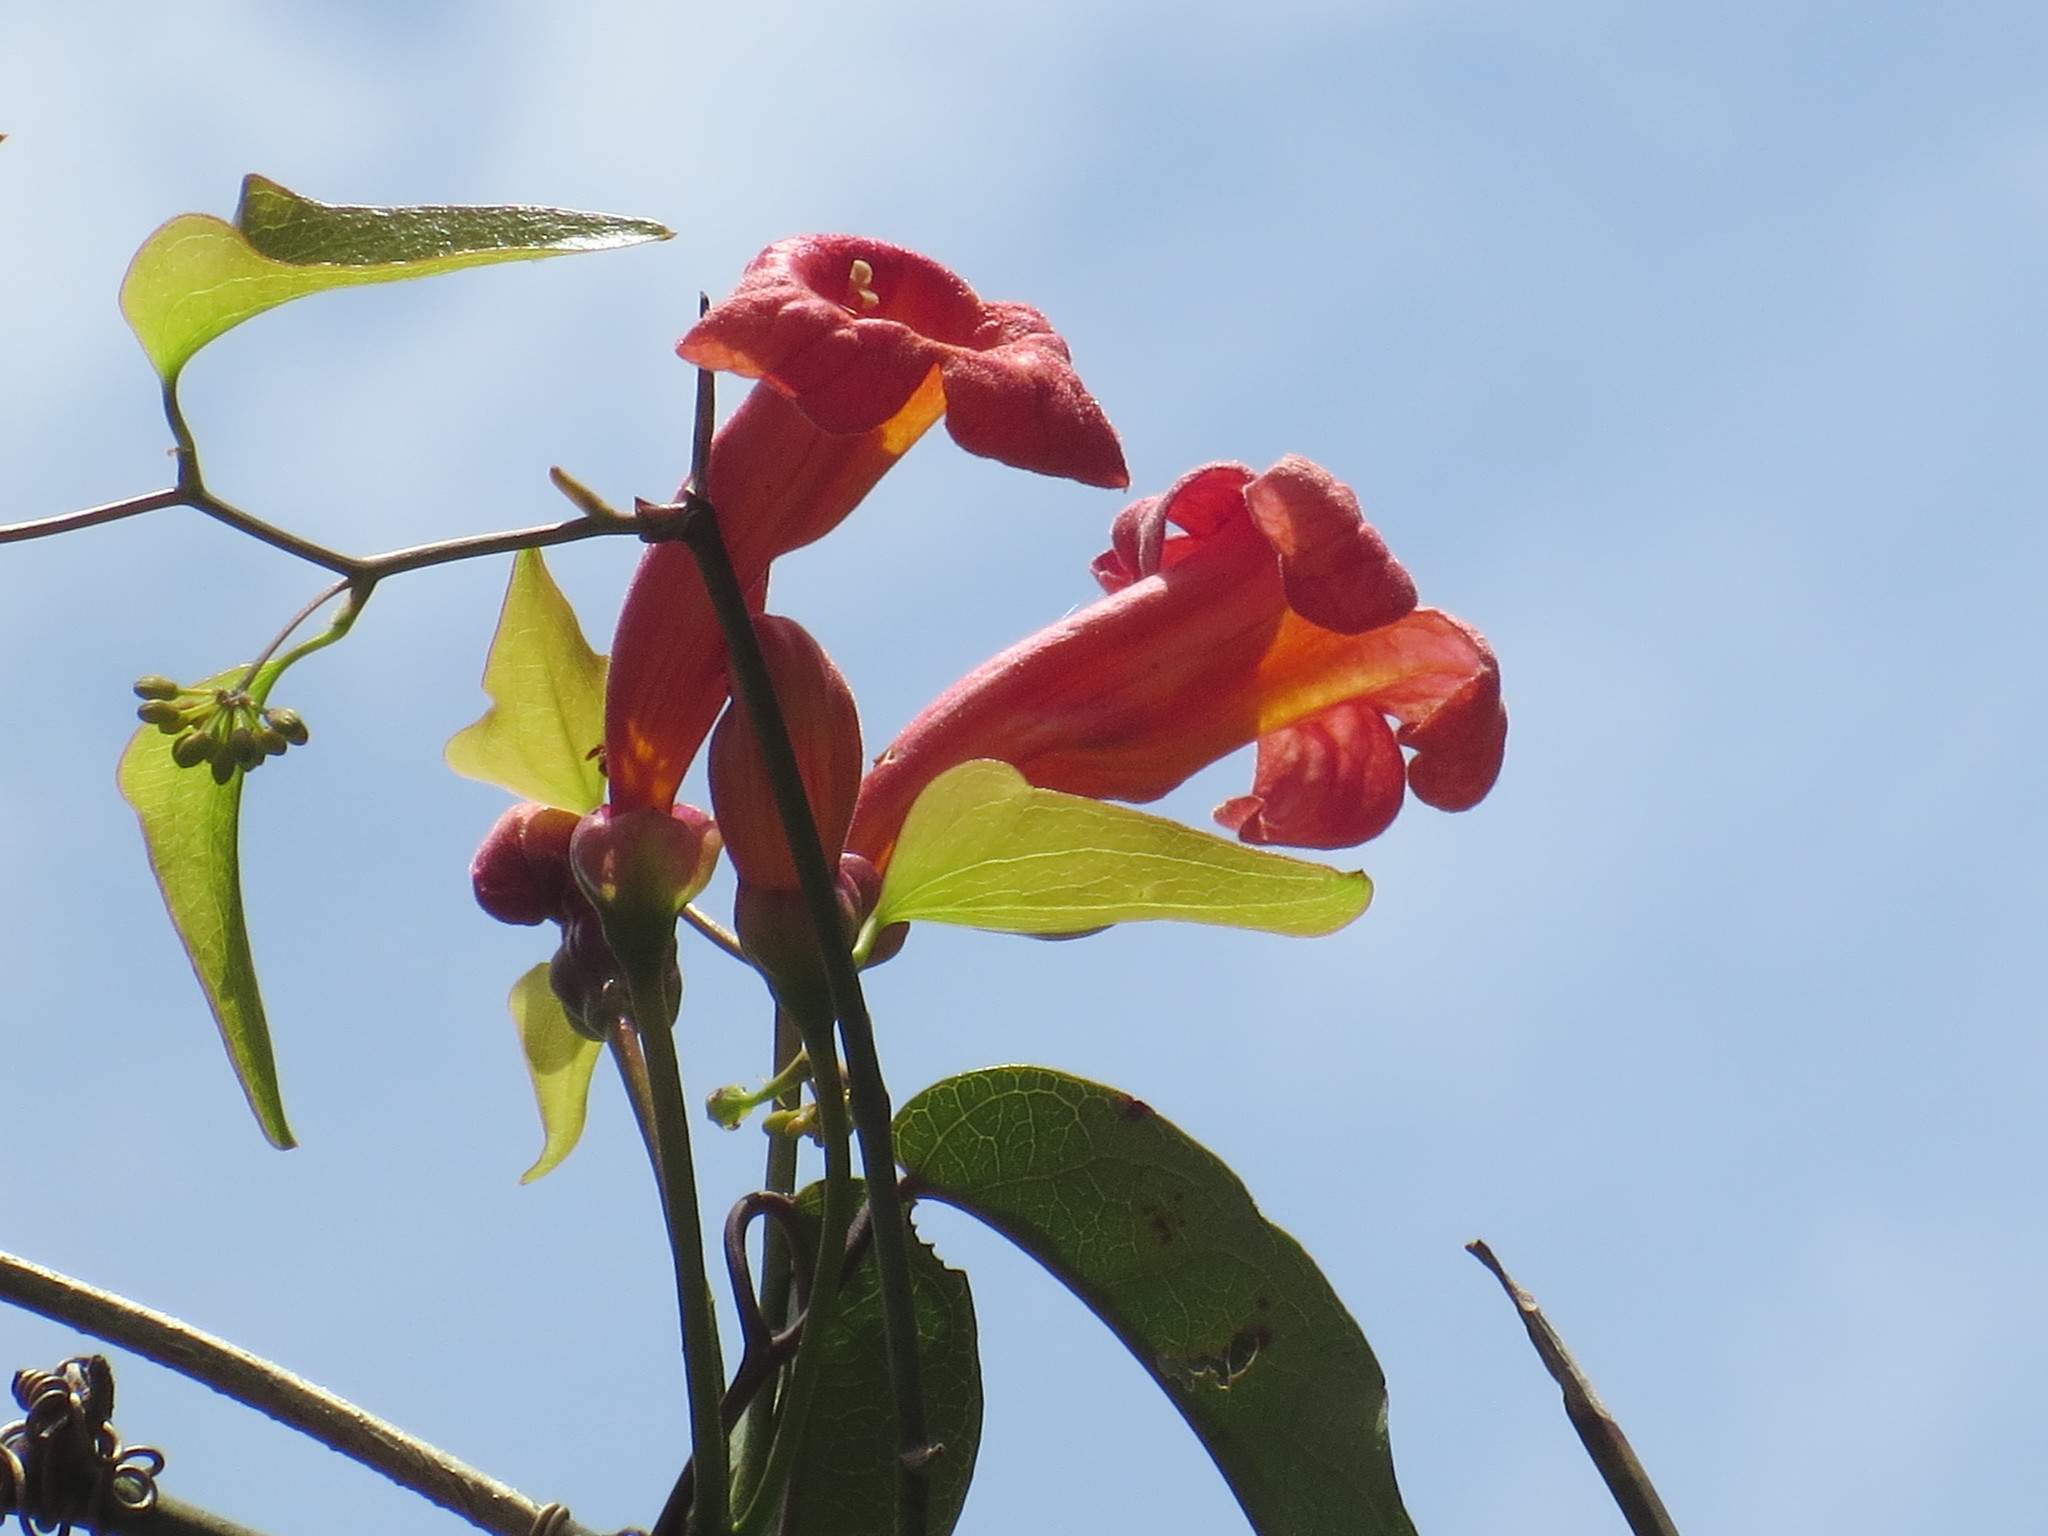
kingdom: Plantae
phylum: Tracheophyta
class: Magnoliopsida
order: Lamiales
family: Bignoniaceae
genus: Bignonia
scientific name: Bignonia capreolata
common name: Crossvine
